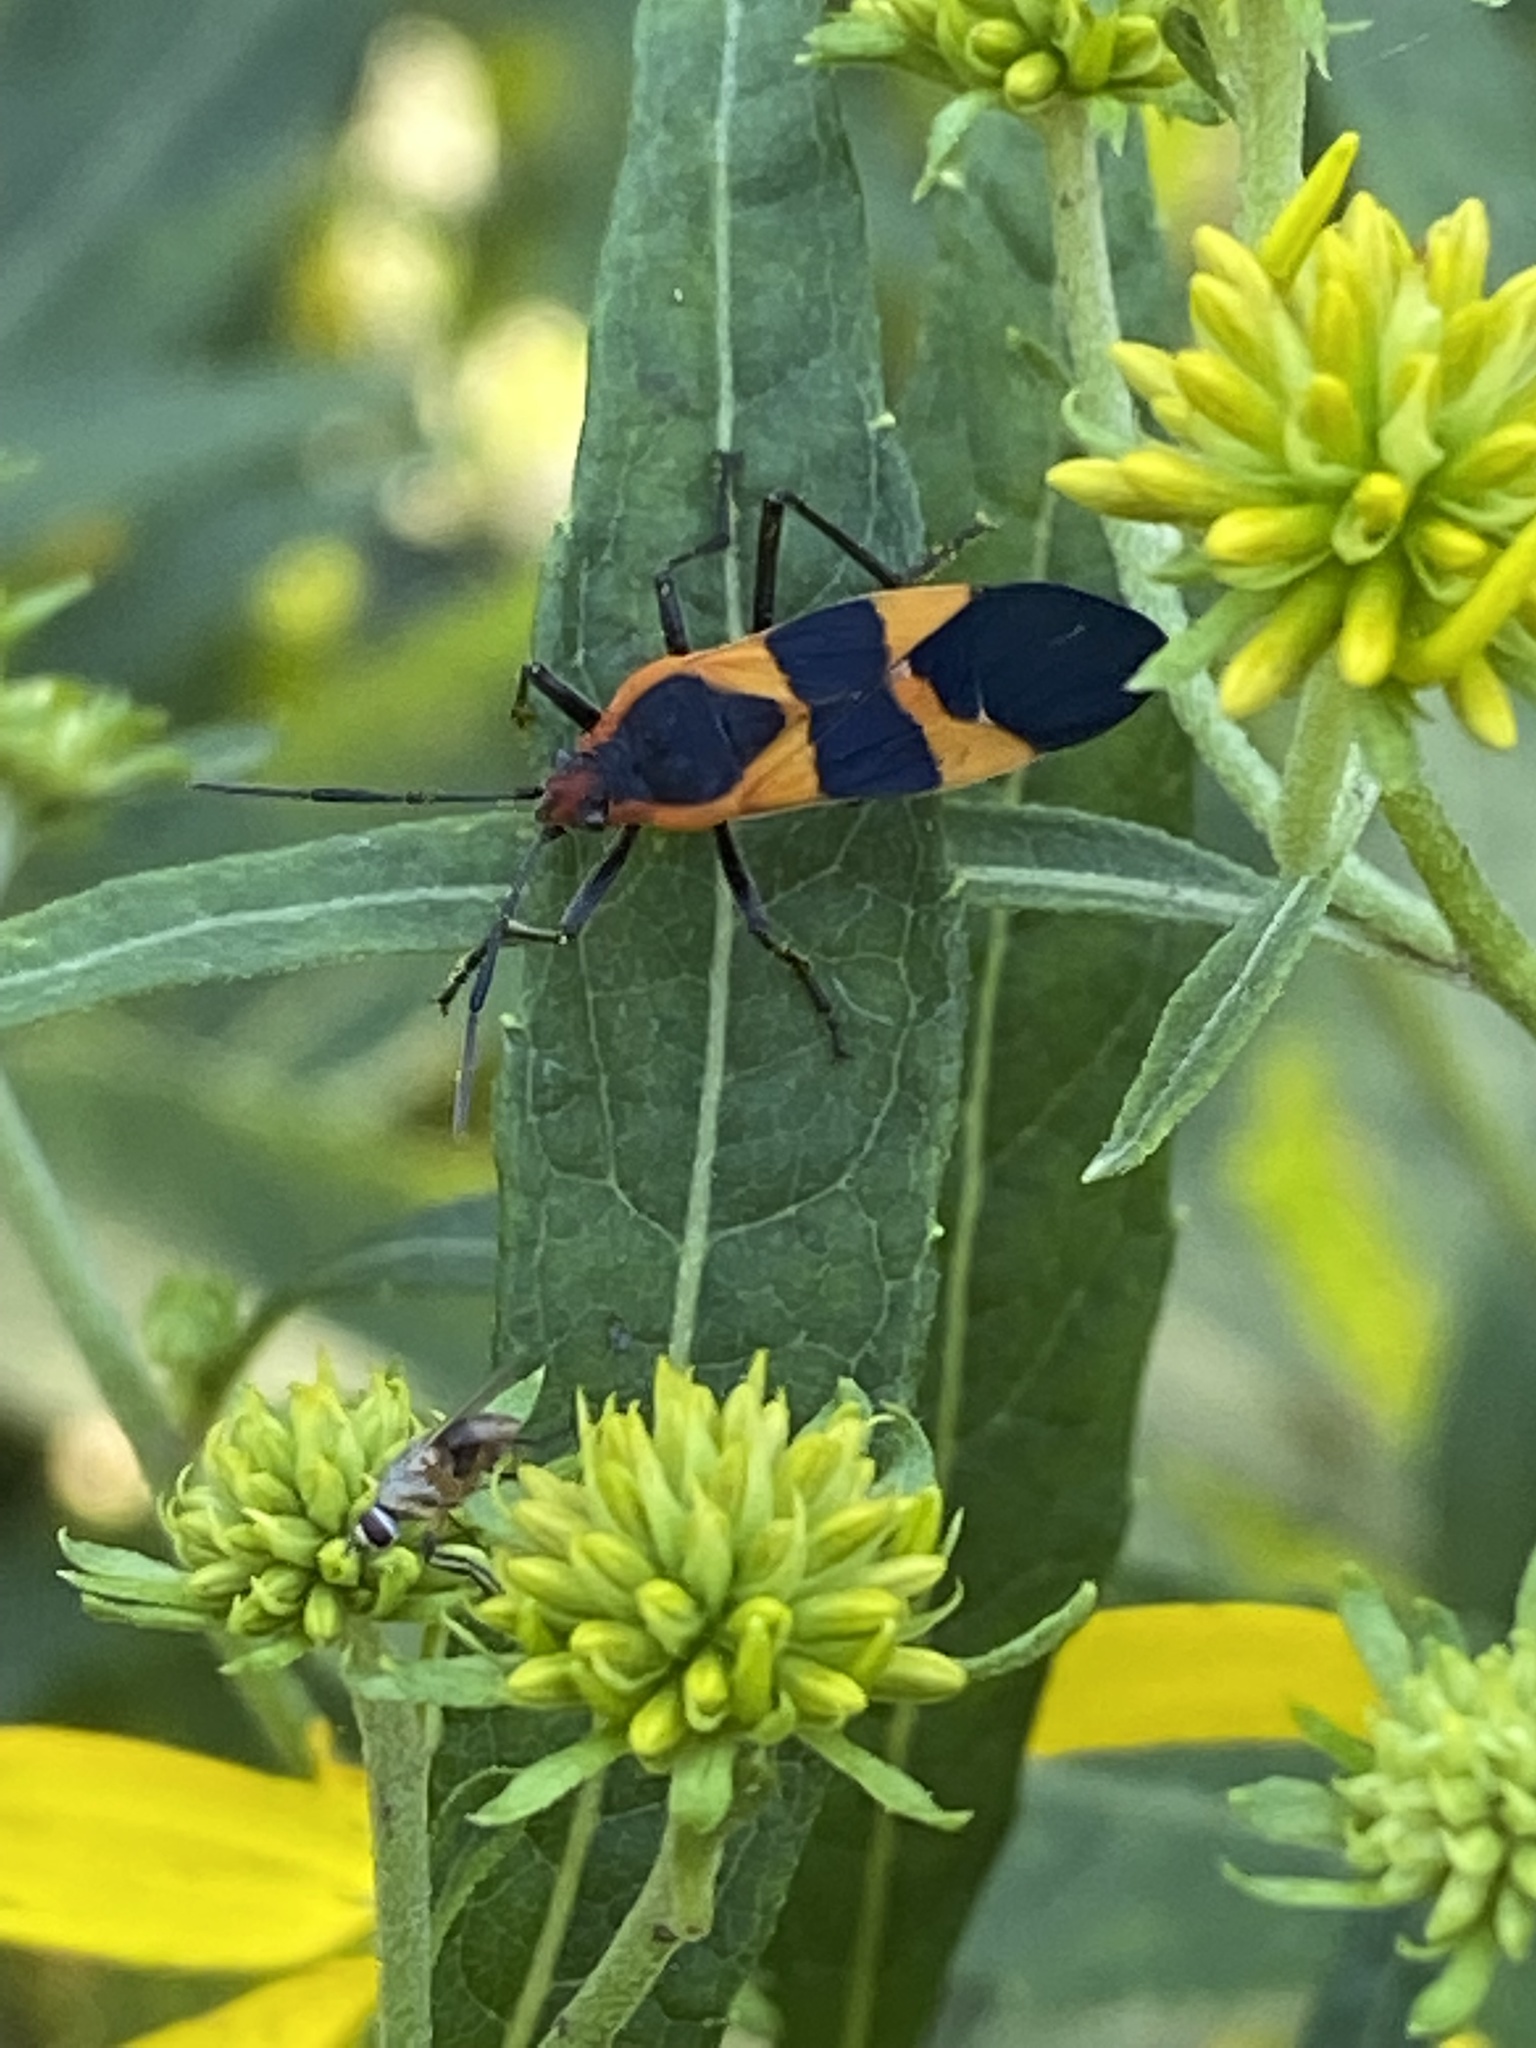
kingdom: Animalia
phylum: Arthropoda
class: Insecta
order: Hemiptera
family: Lygaeidae
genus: Oncopeltus
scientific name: Oncopeltus fasciatus
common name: Large milkweed bug
